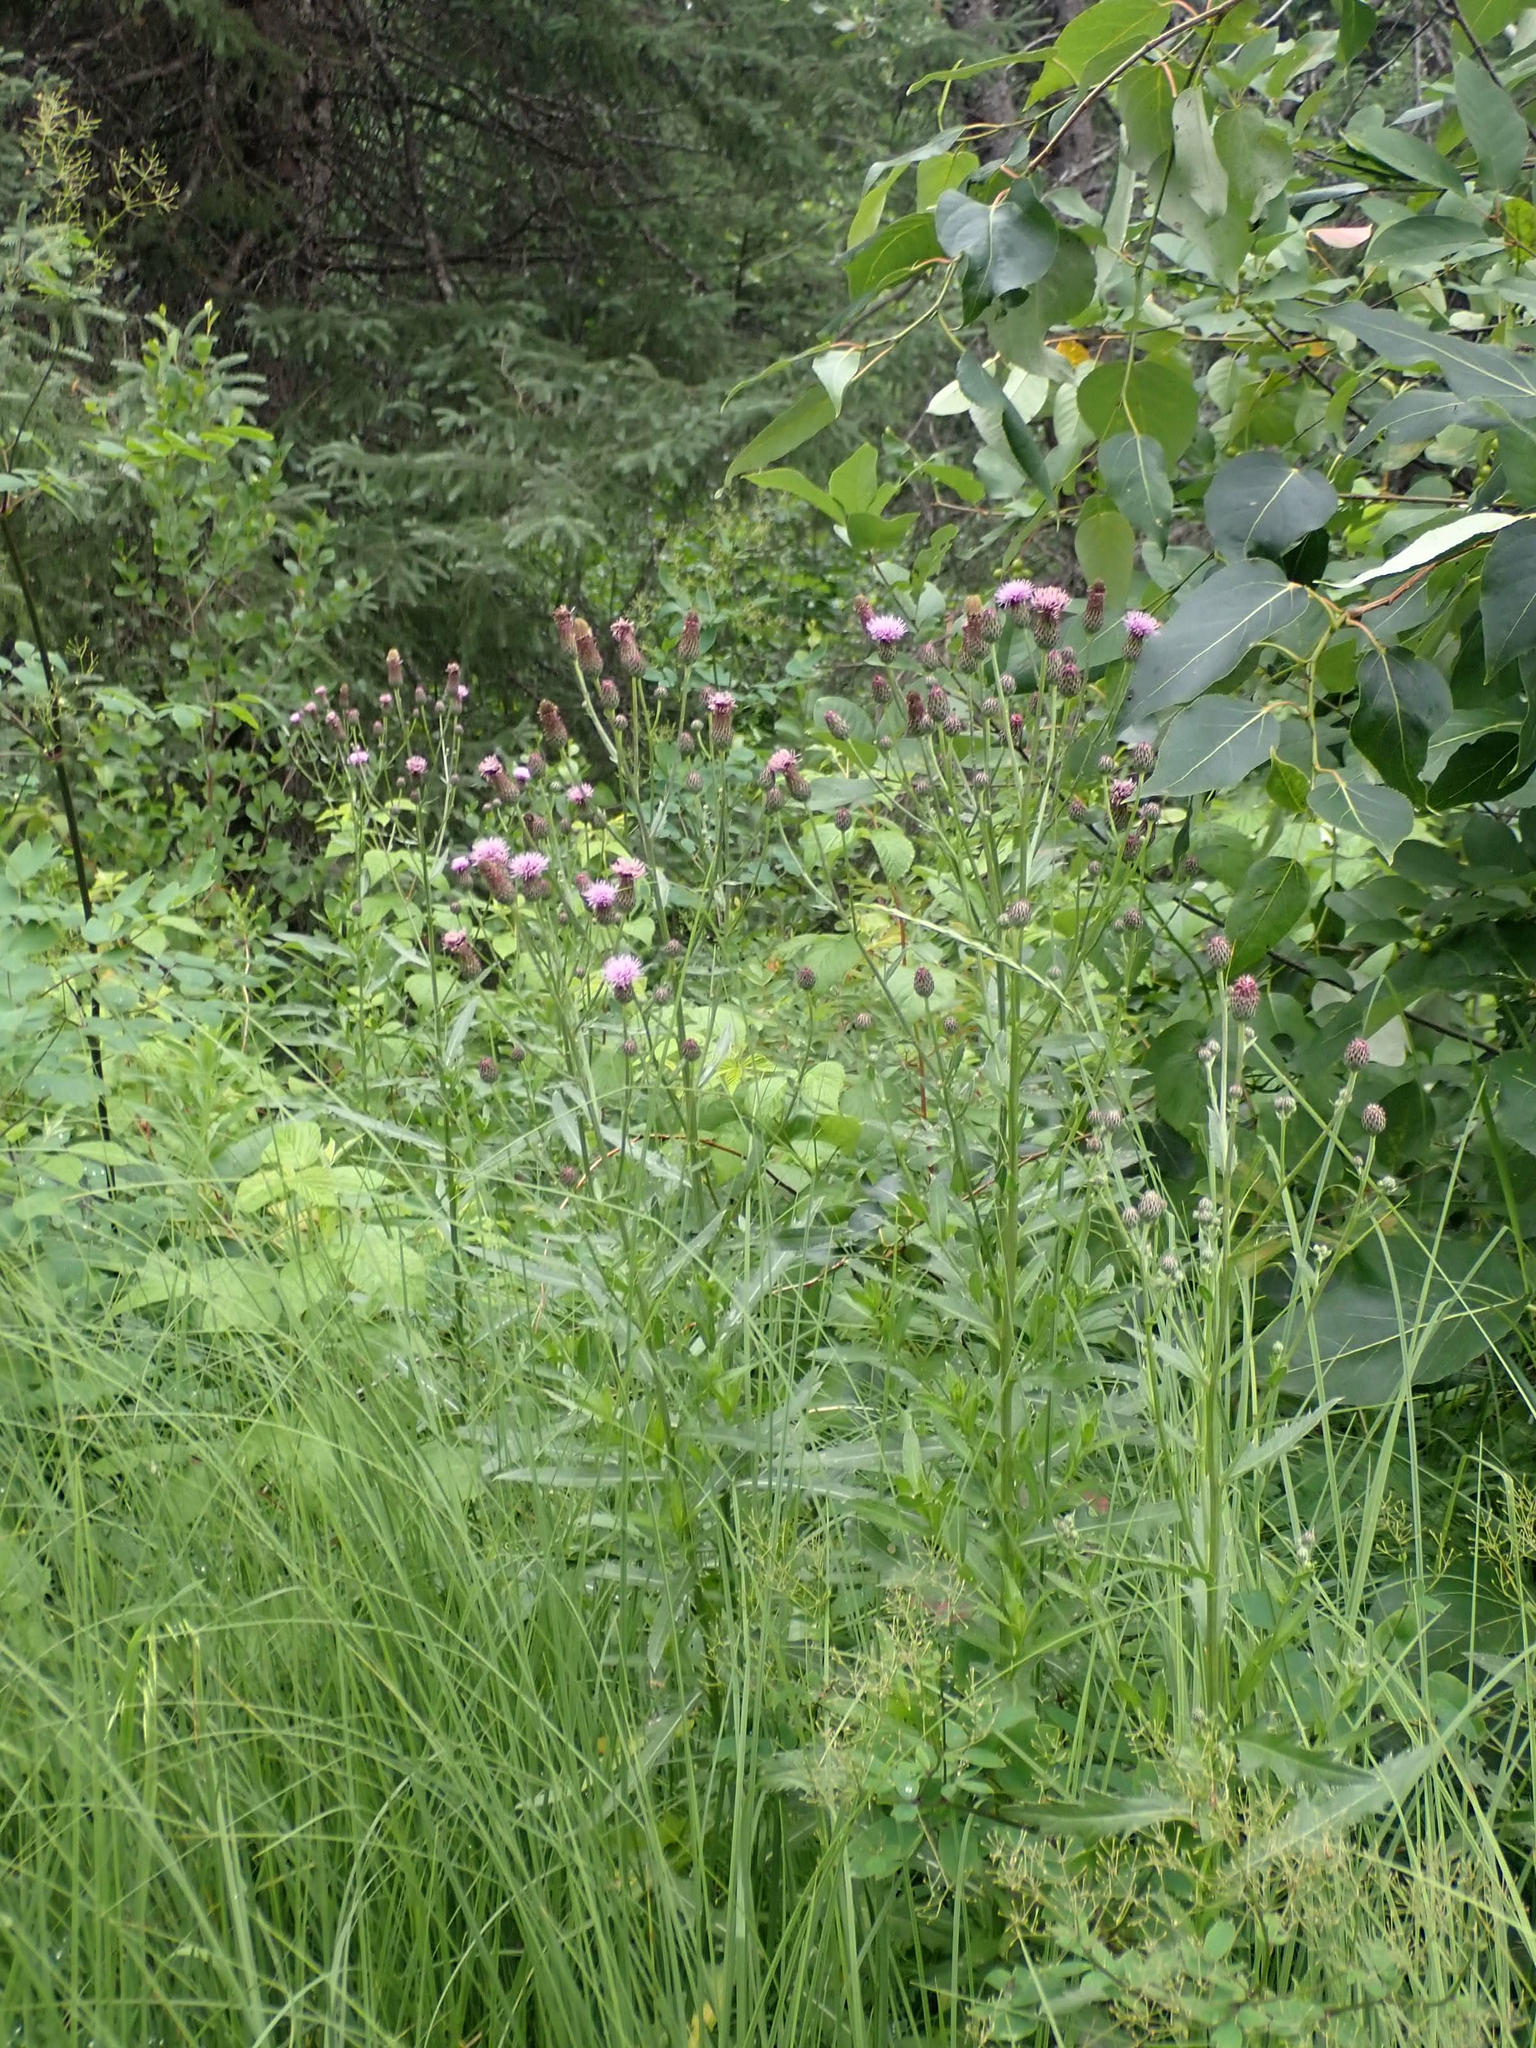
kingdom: Plantae
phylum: Tracheophyta
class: Magnoliopsida
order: Asterales
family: Asteraceae
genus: Cirsium
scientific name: Cirsium arvense
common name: Creeping thistle
